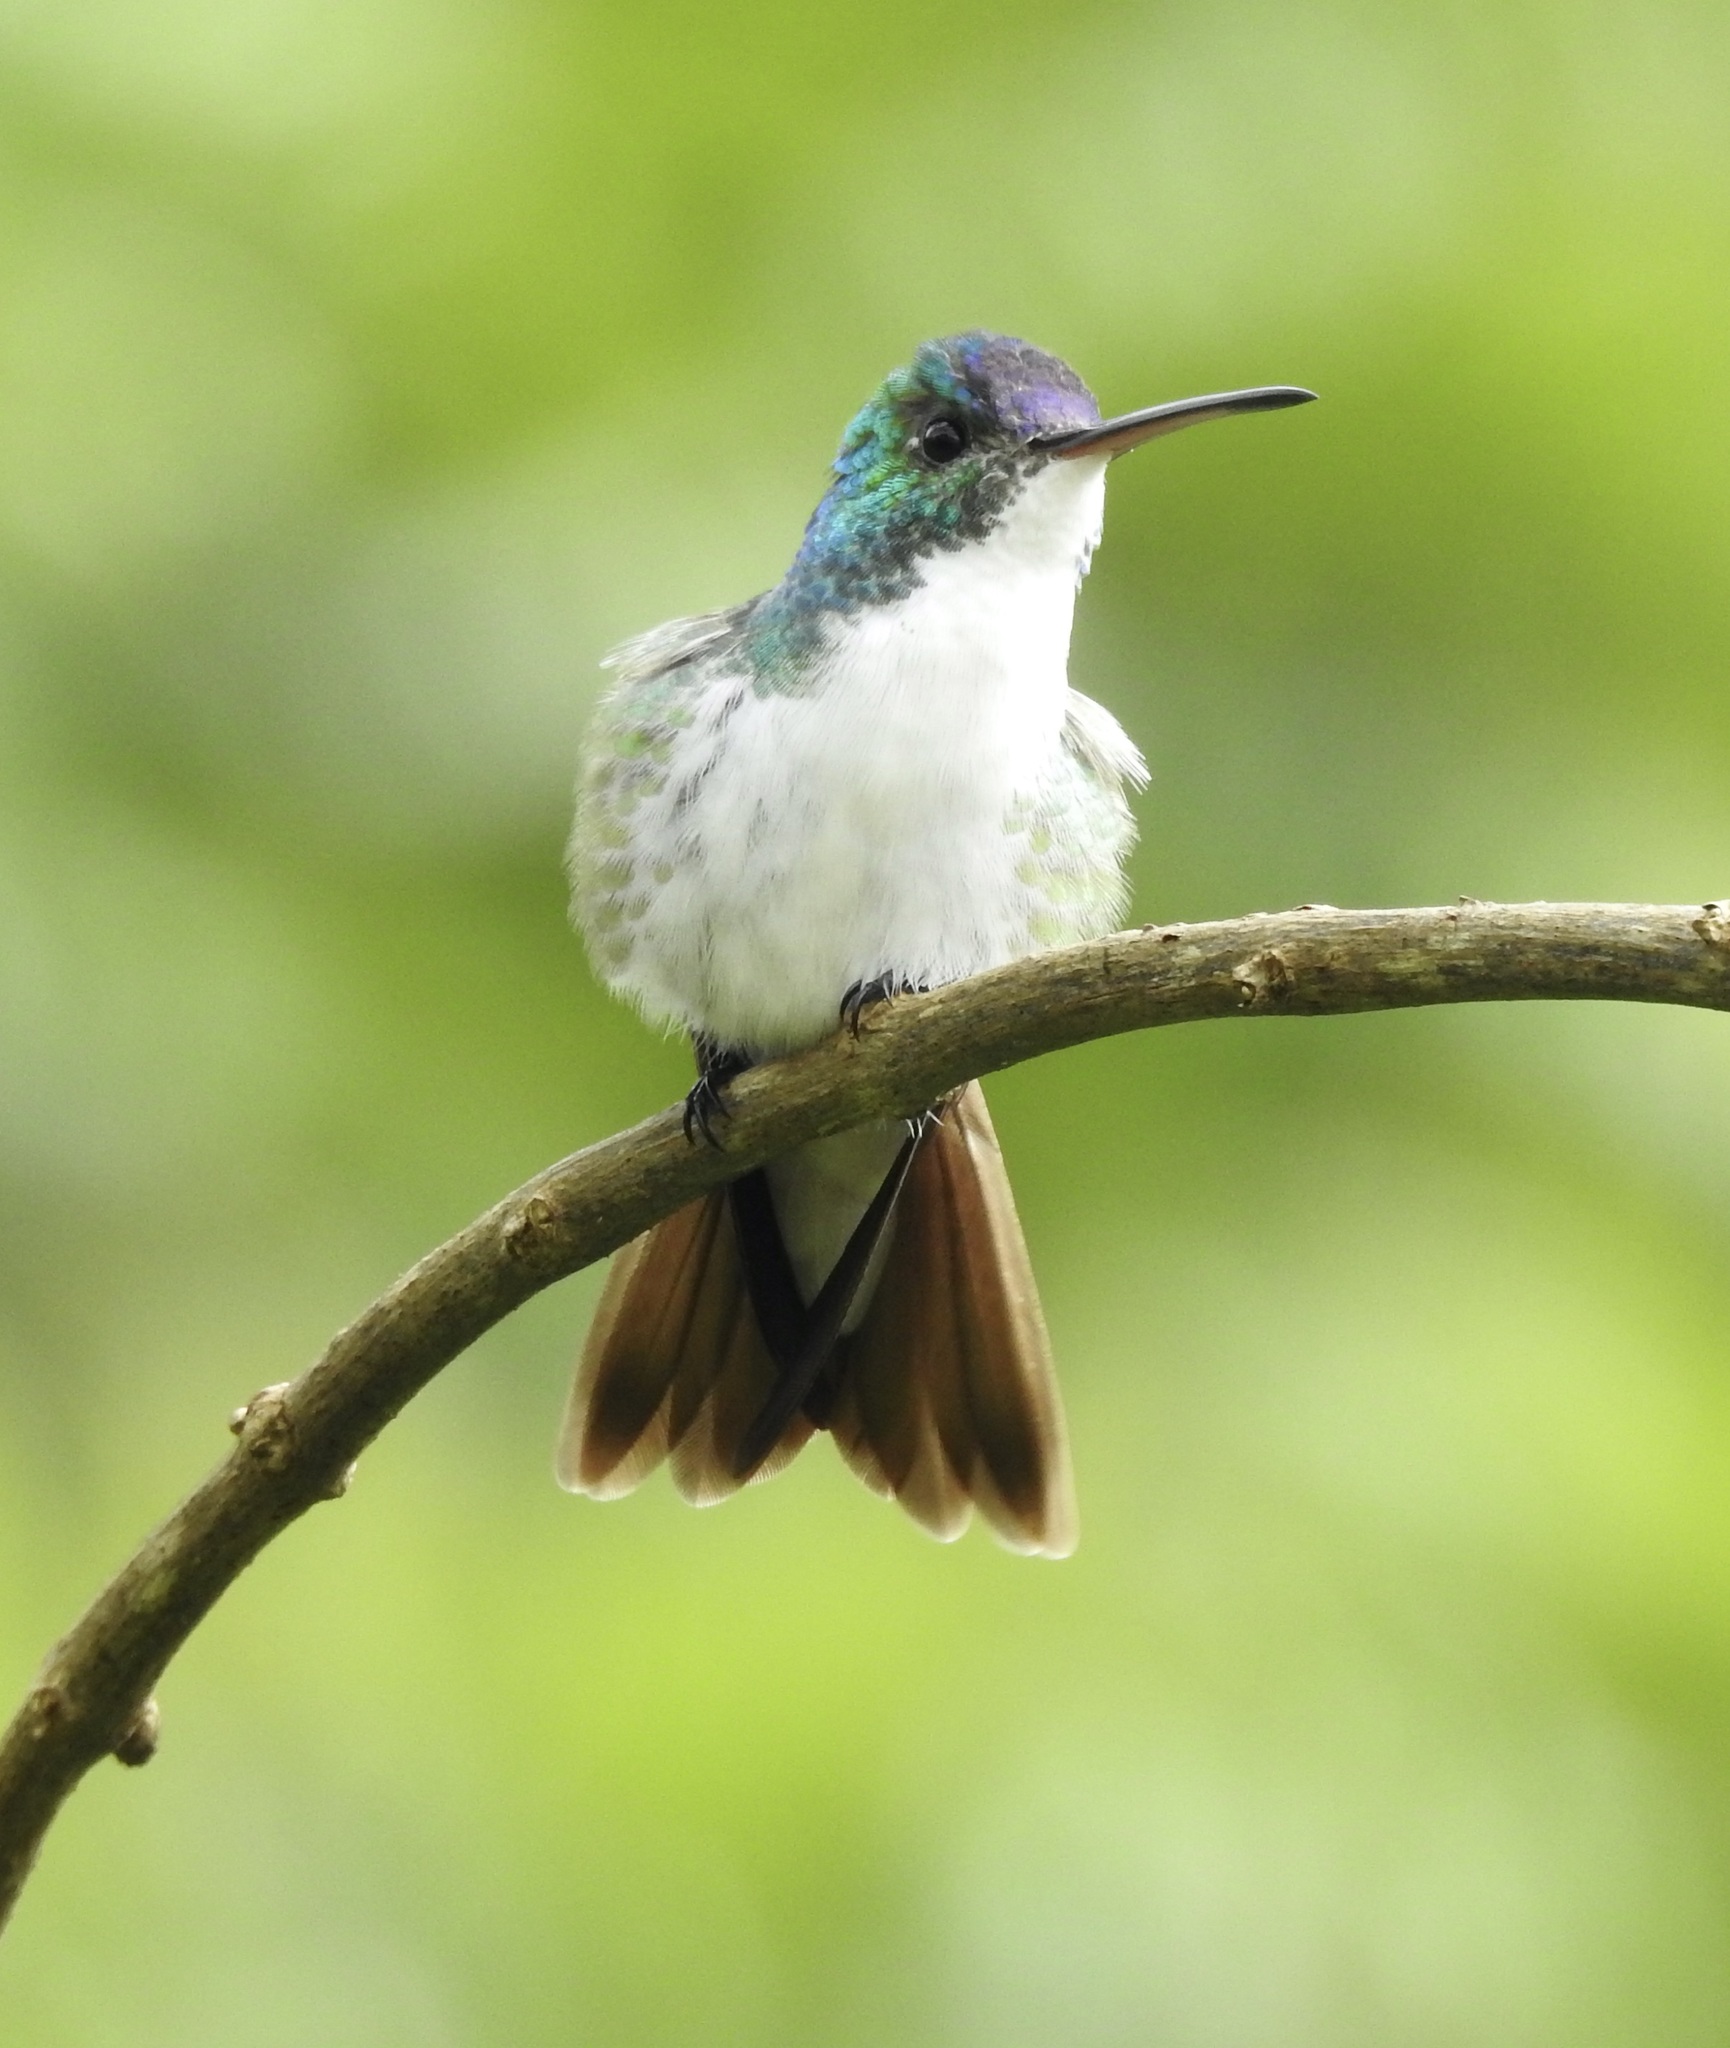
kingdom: Animalia
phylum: Chordata
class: Aves
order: Apodiformes
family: Trochilidae
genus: Uranomitra
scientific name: Uranomitra franciae
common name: Andean emerald
